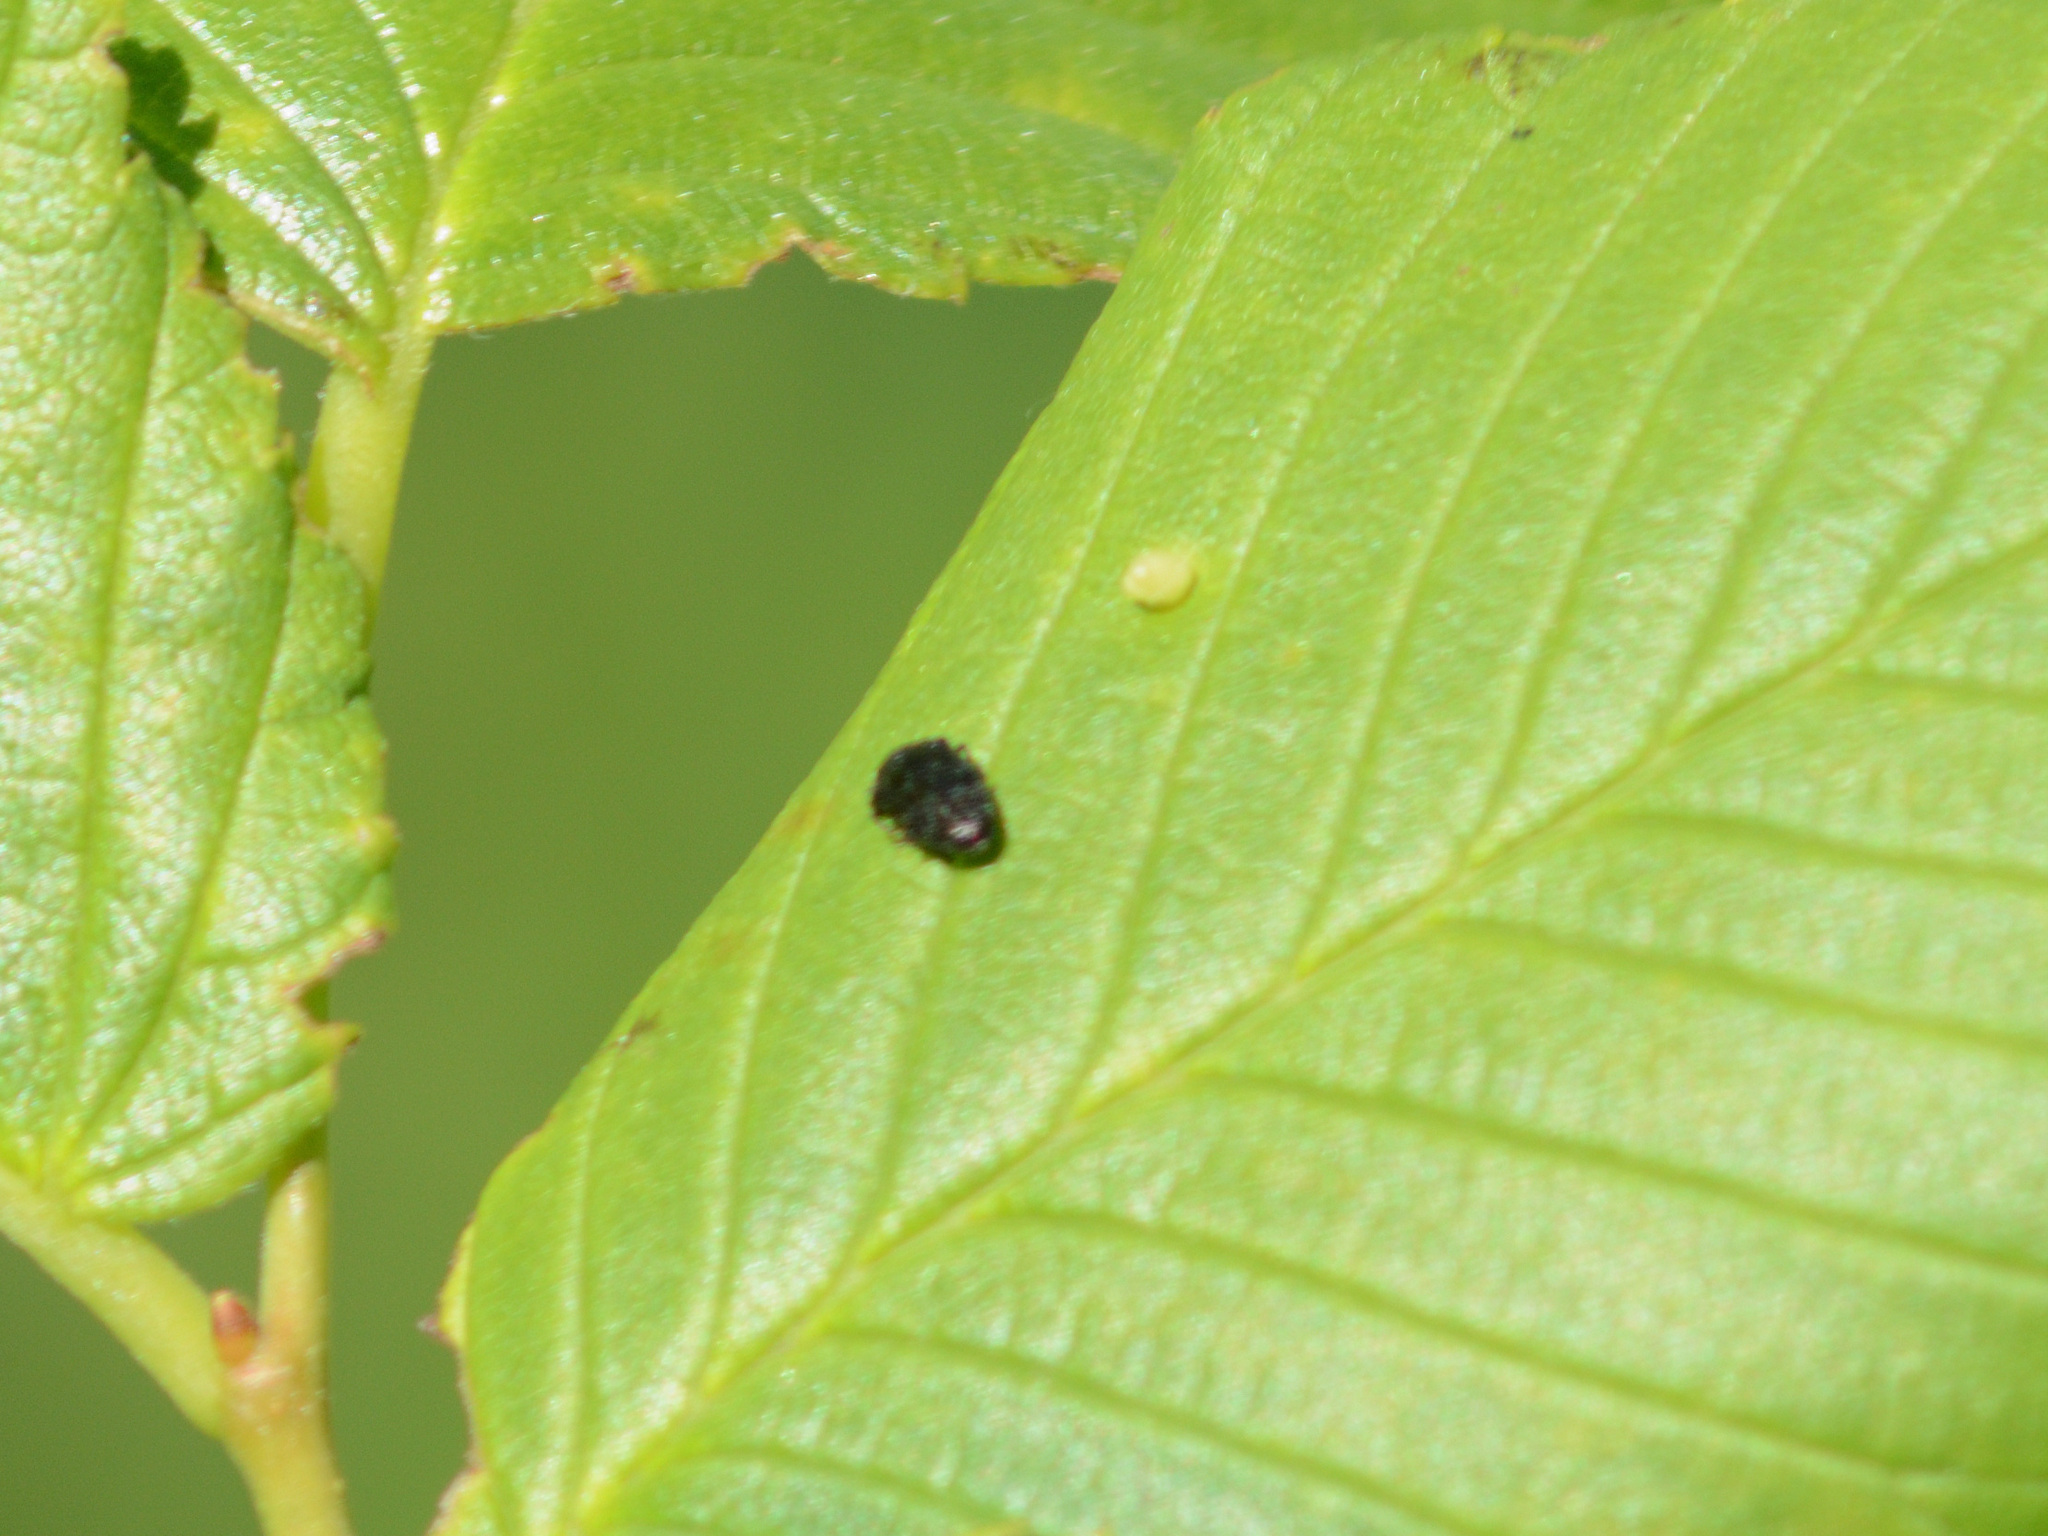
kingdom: Animalia
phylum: Arthropoda
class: Insecta
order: Coleoptera
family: Buprestidae
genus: Trachys
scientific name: Trachys minutus
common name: Metallic wood-boring beetle
